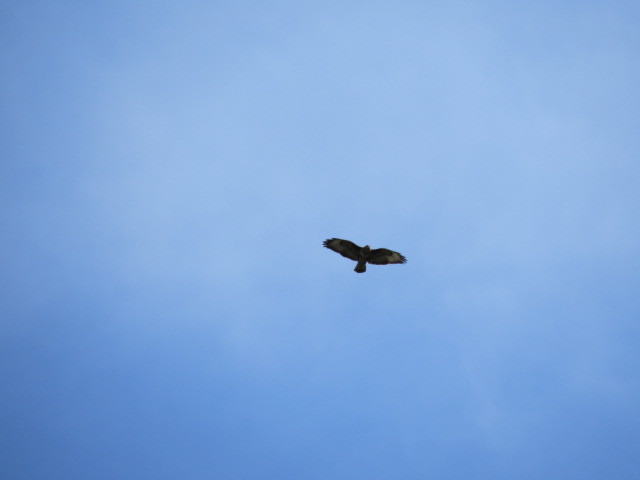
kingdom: Animalia
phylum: Chordata
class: Aves
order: Accipitriformes
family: Accipitridae
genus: Buteo
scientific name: Buteo buteo
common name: Common buzzard
